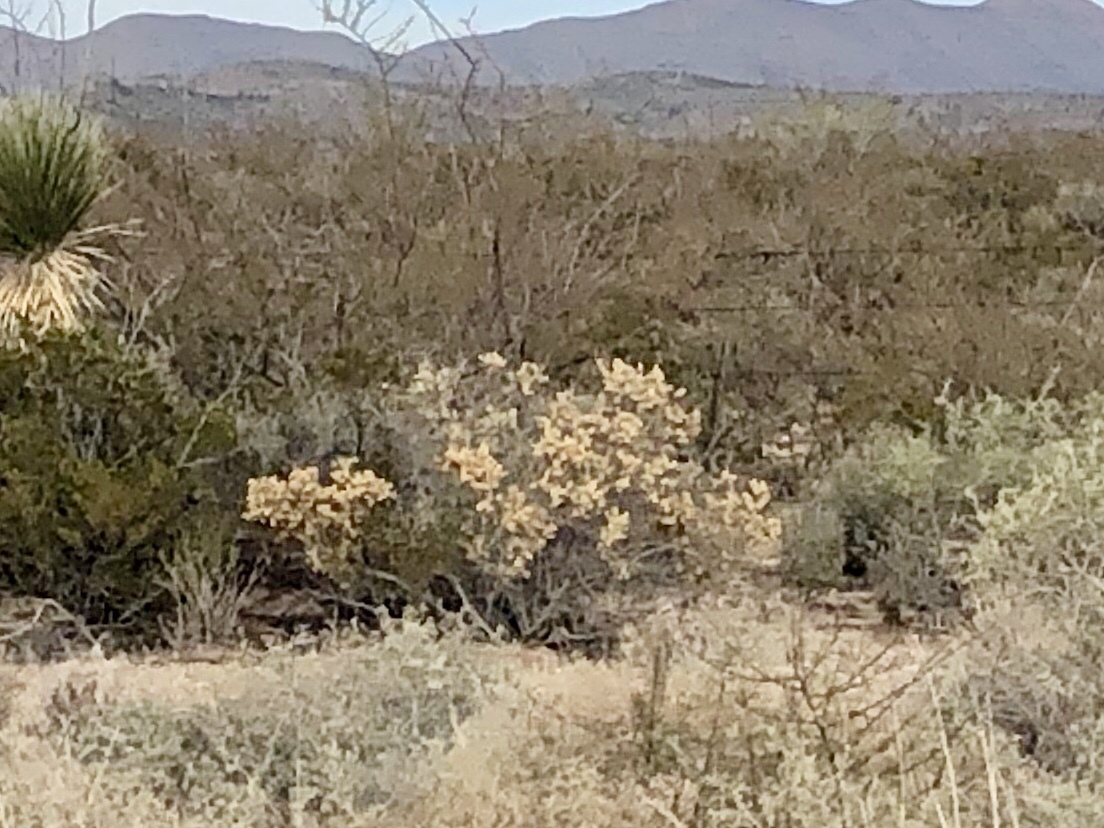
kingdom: Plantae
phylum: Tracheophyta
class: Magnoliopsida
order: Caryophyllales
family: Amaranthaceae
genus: Atriplex
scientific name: Atriplex canescens
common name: Four-wing saltbush
